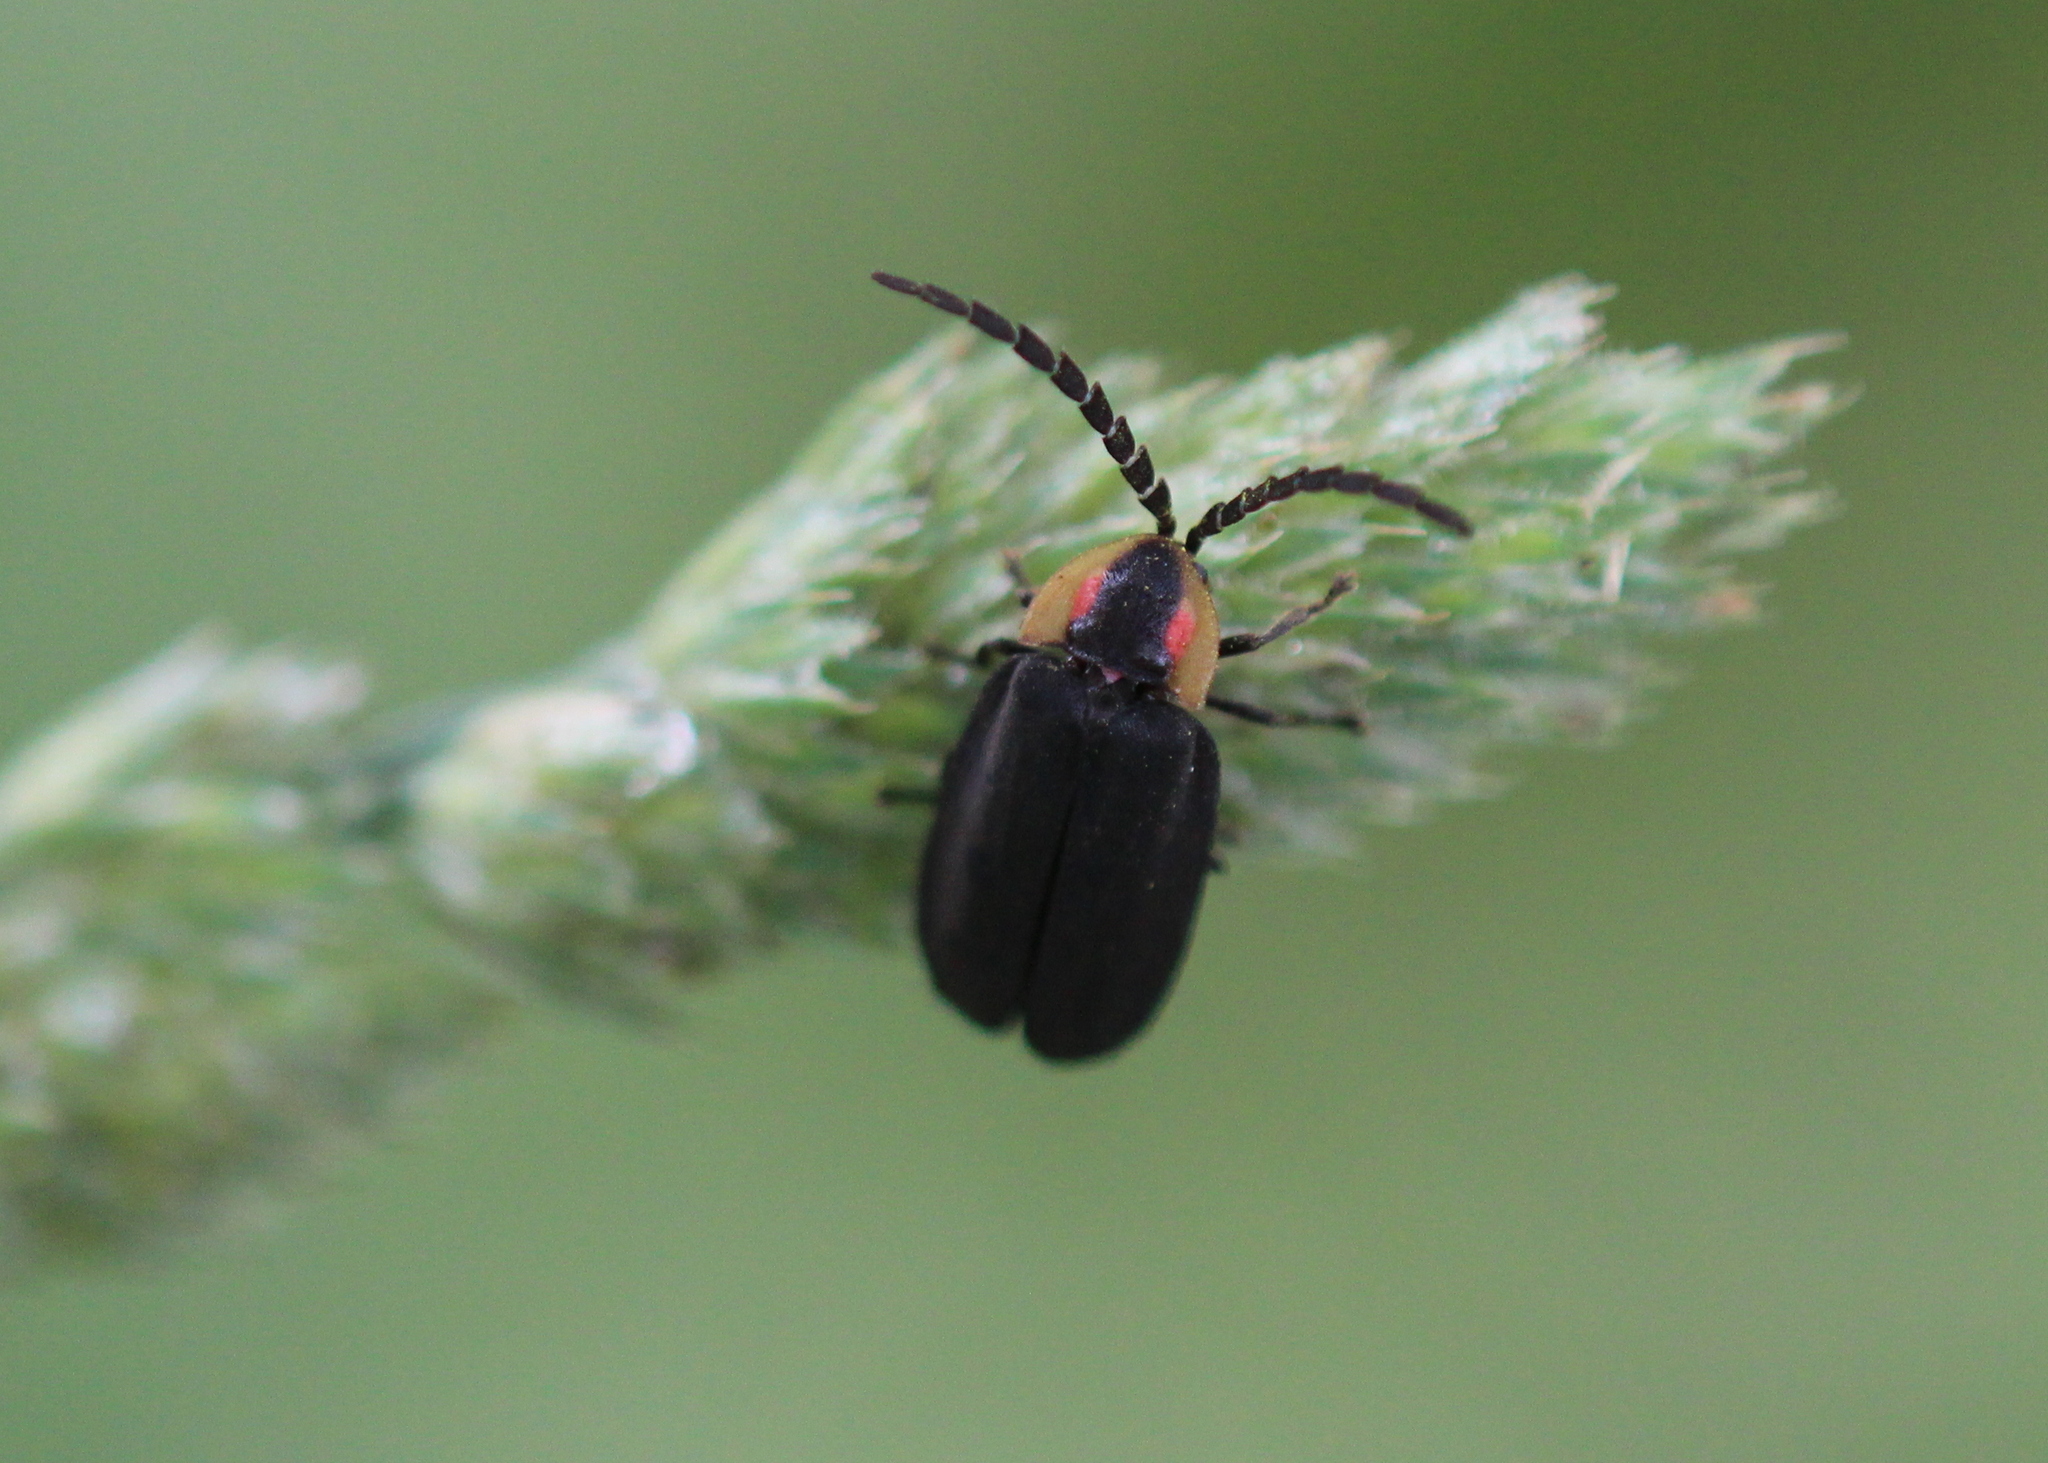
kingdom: Animalia
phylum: Arthropoda
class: Insecta
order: Coleoptera
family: Lampyridae
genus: Lucidota
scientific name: Lucidota atra
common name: Black firefly
